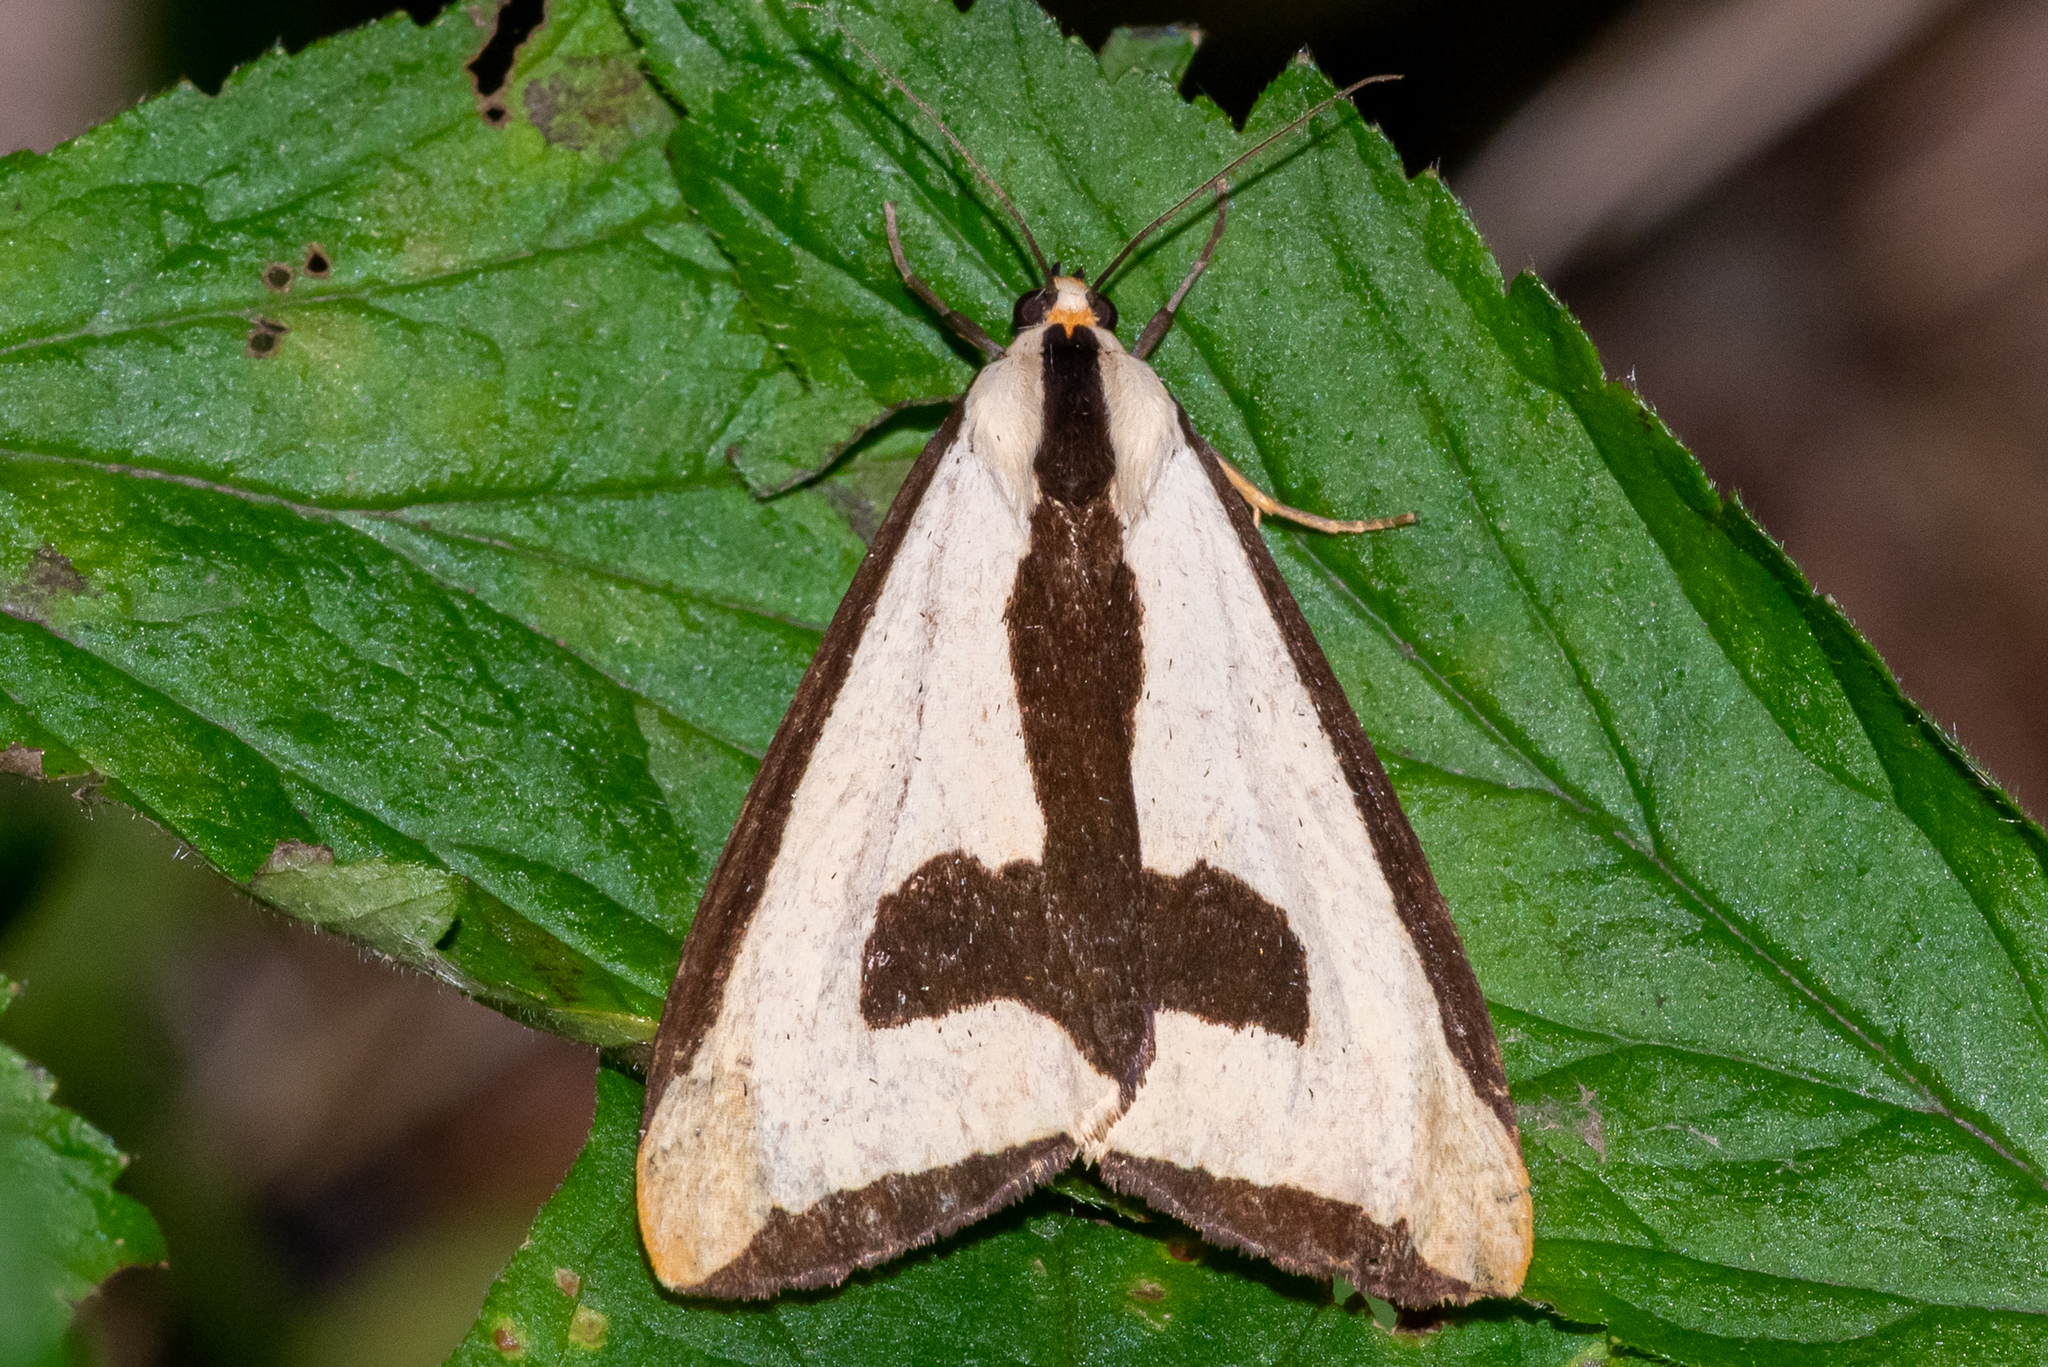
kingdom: Animalia
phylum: Arthropoda
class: Insecta
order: Lepidoptera
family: Erebidae
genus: Haploa
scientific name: Haploa clymene
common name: Clymene moth
